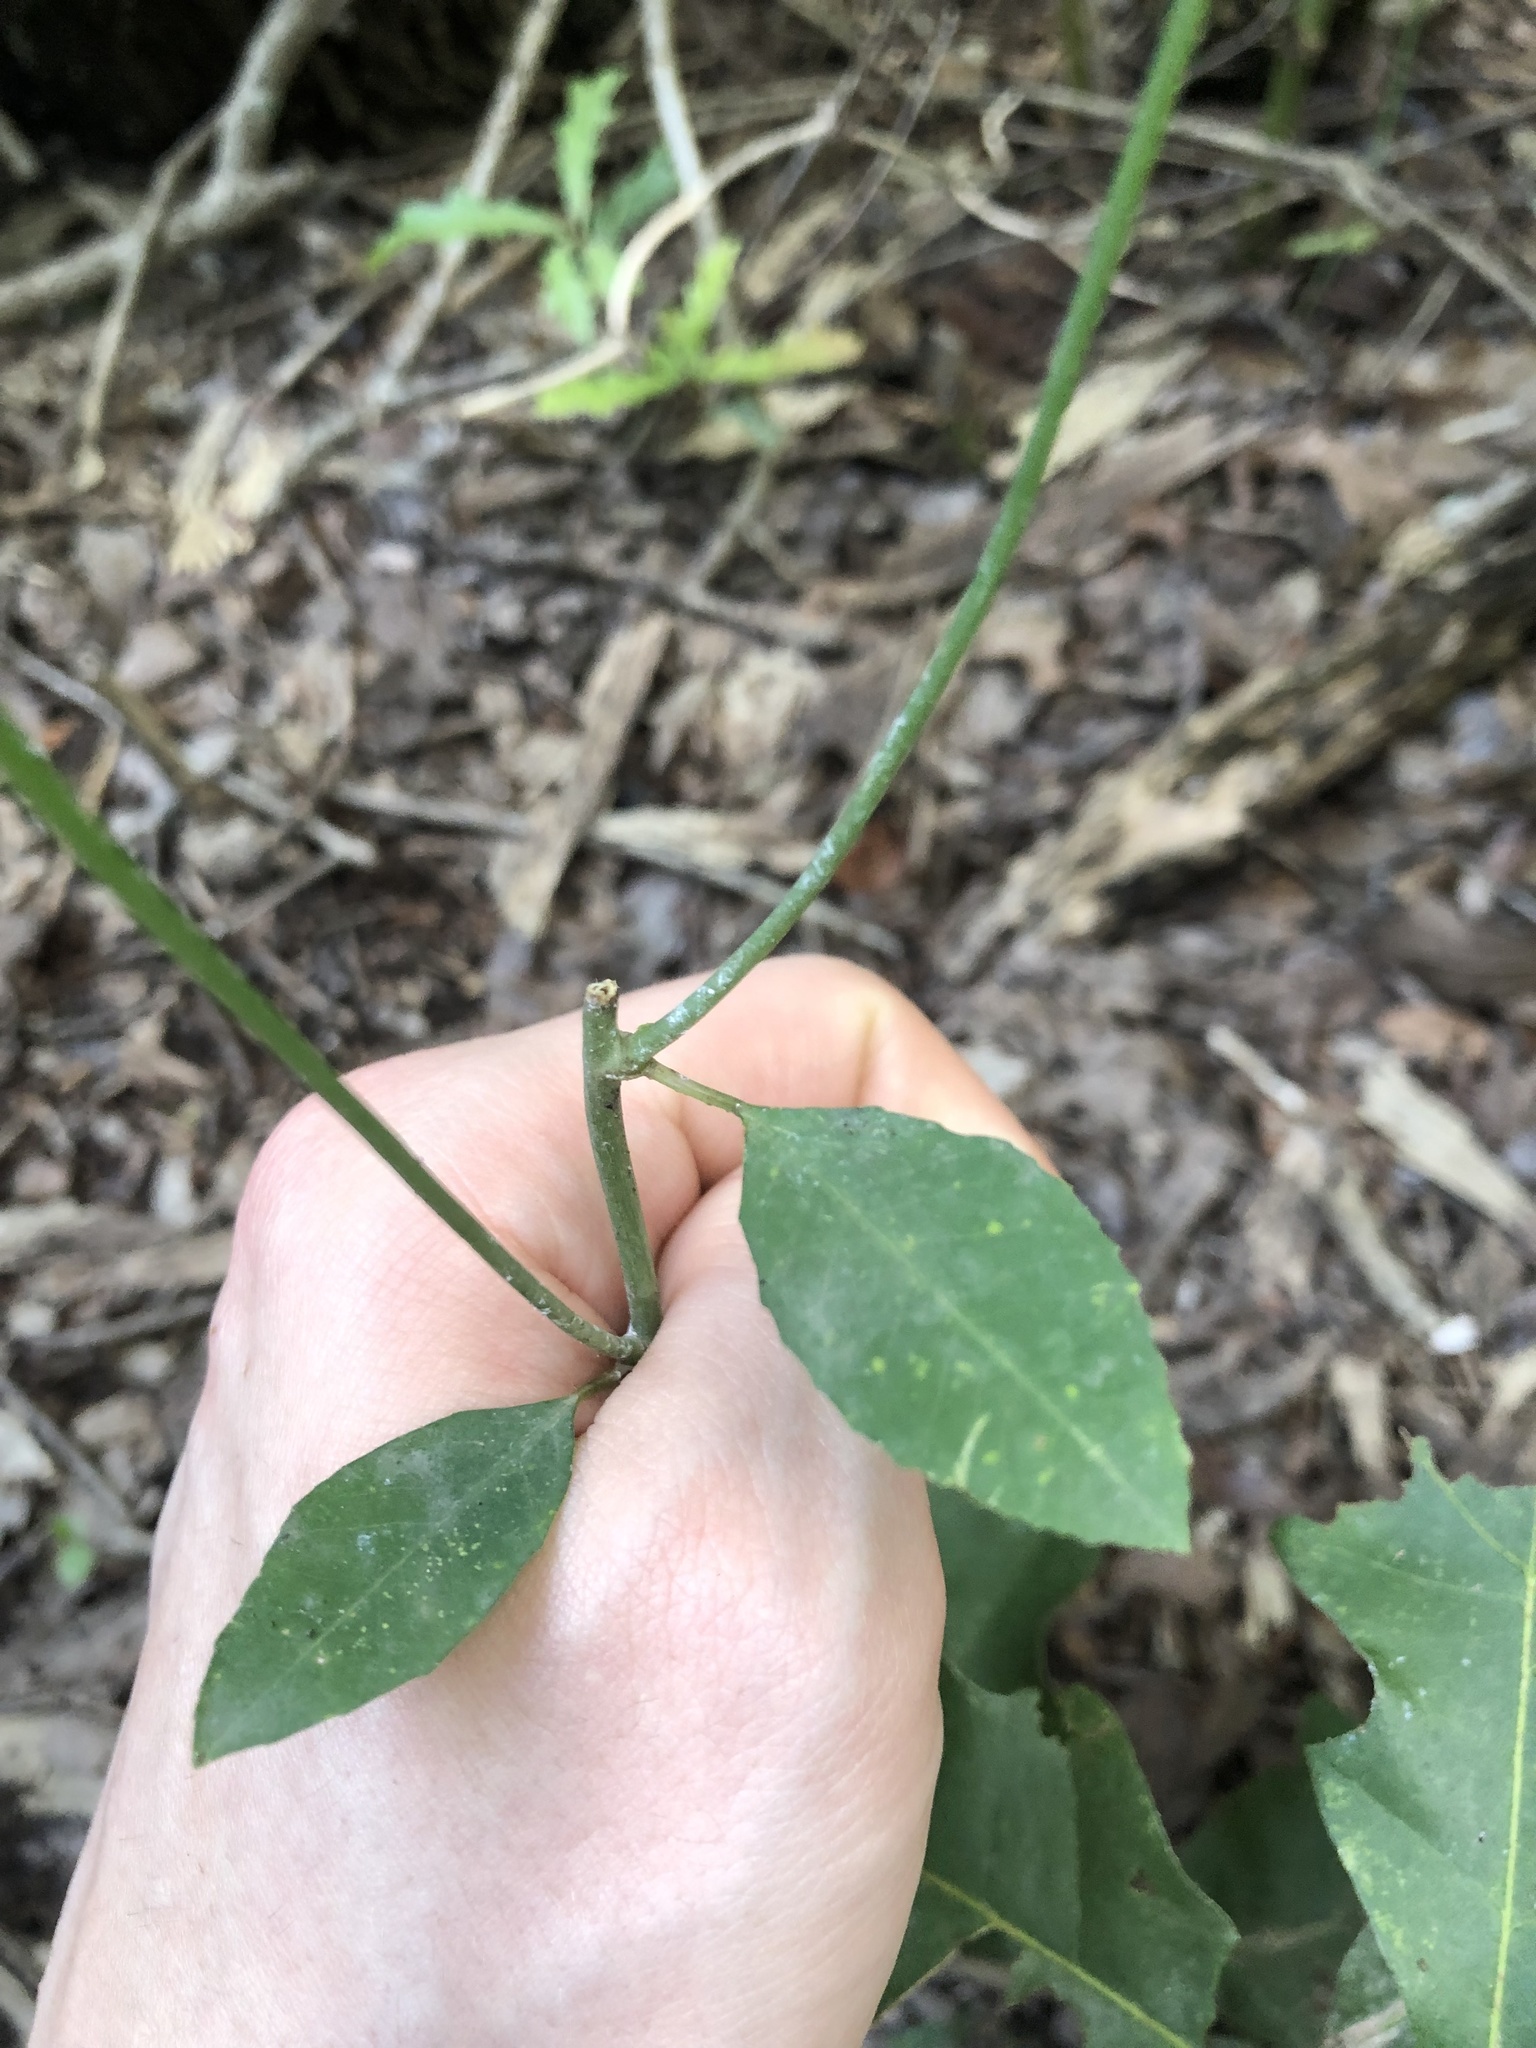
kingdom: Plantae
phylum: Tracheophyta
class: Magnoliopsida
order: Malpighiales
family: Euphorbiaceae
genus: Euphorbia
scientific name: Euphorbia heterophylla
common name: Mexican fireplant
